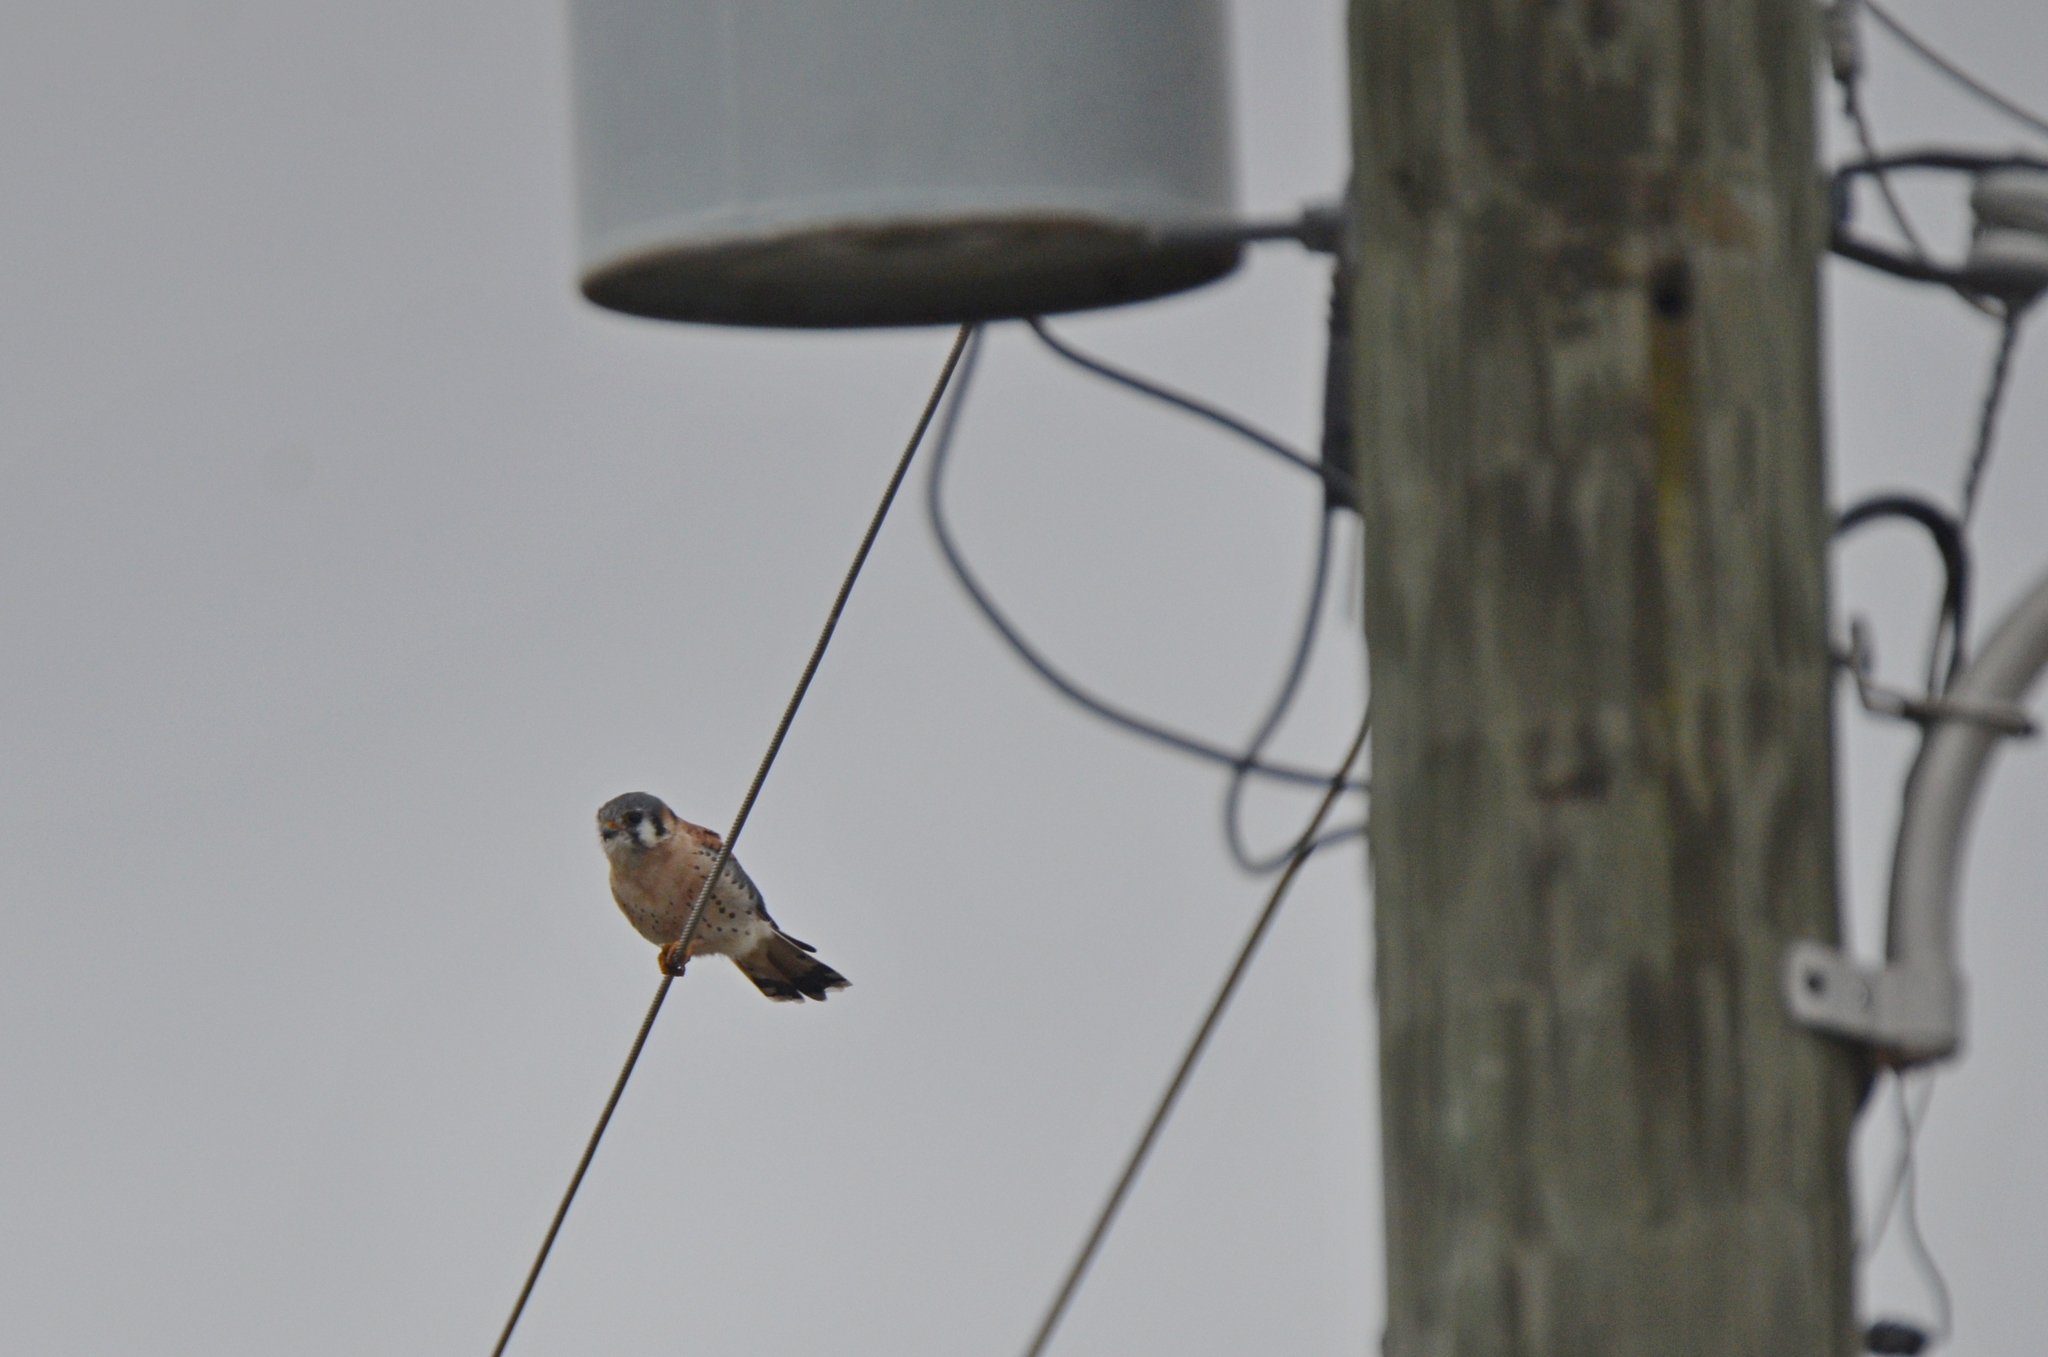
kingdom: Animalia
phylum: Chordata
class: Aves
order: Falconiformes
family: Falconidae
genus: Falco
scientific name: Falco sparverius
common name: American kestrel
